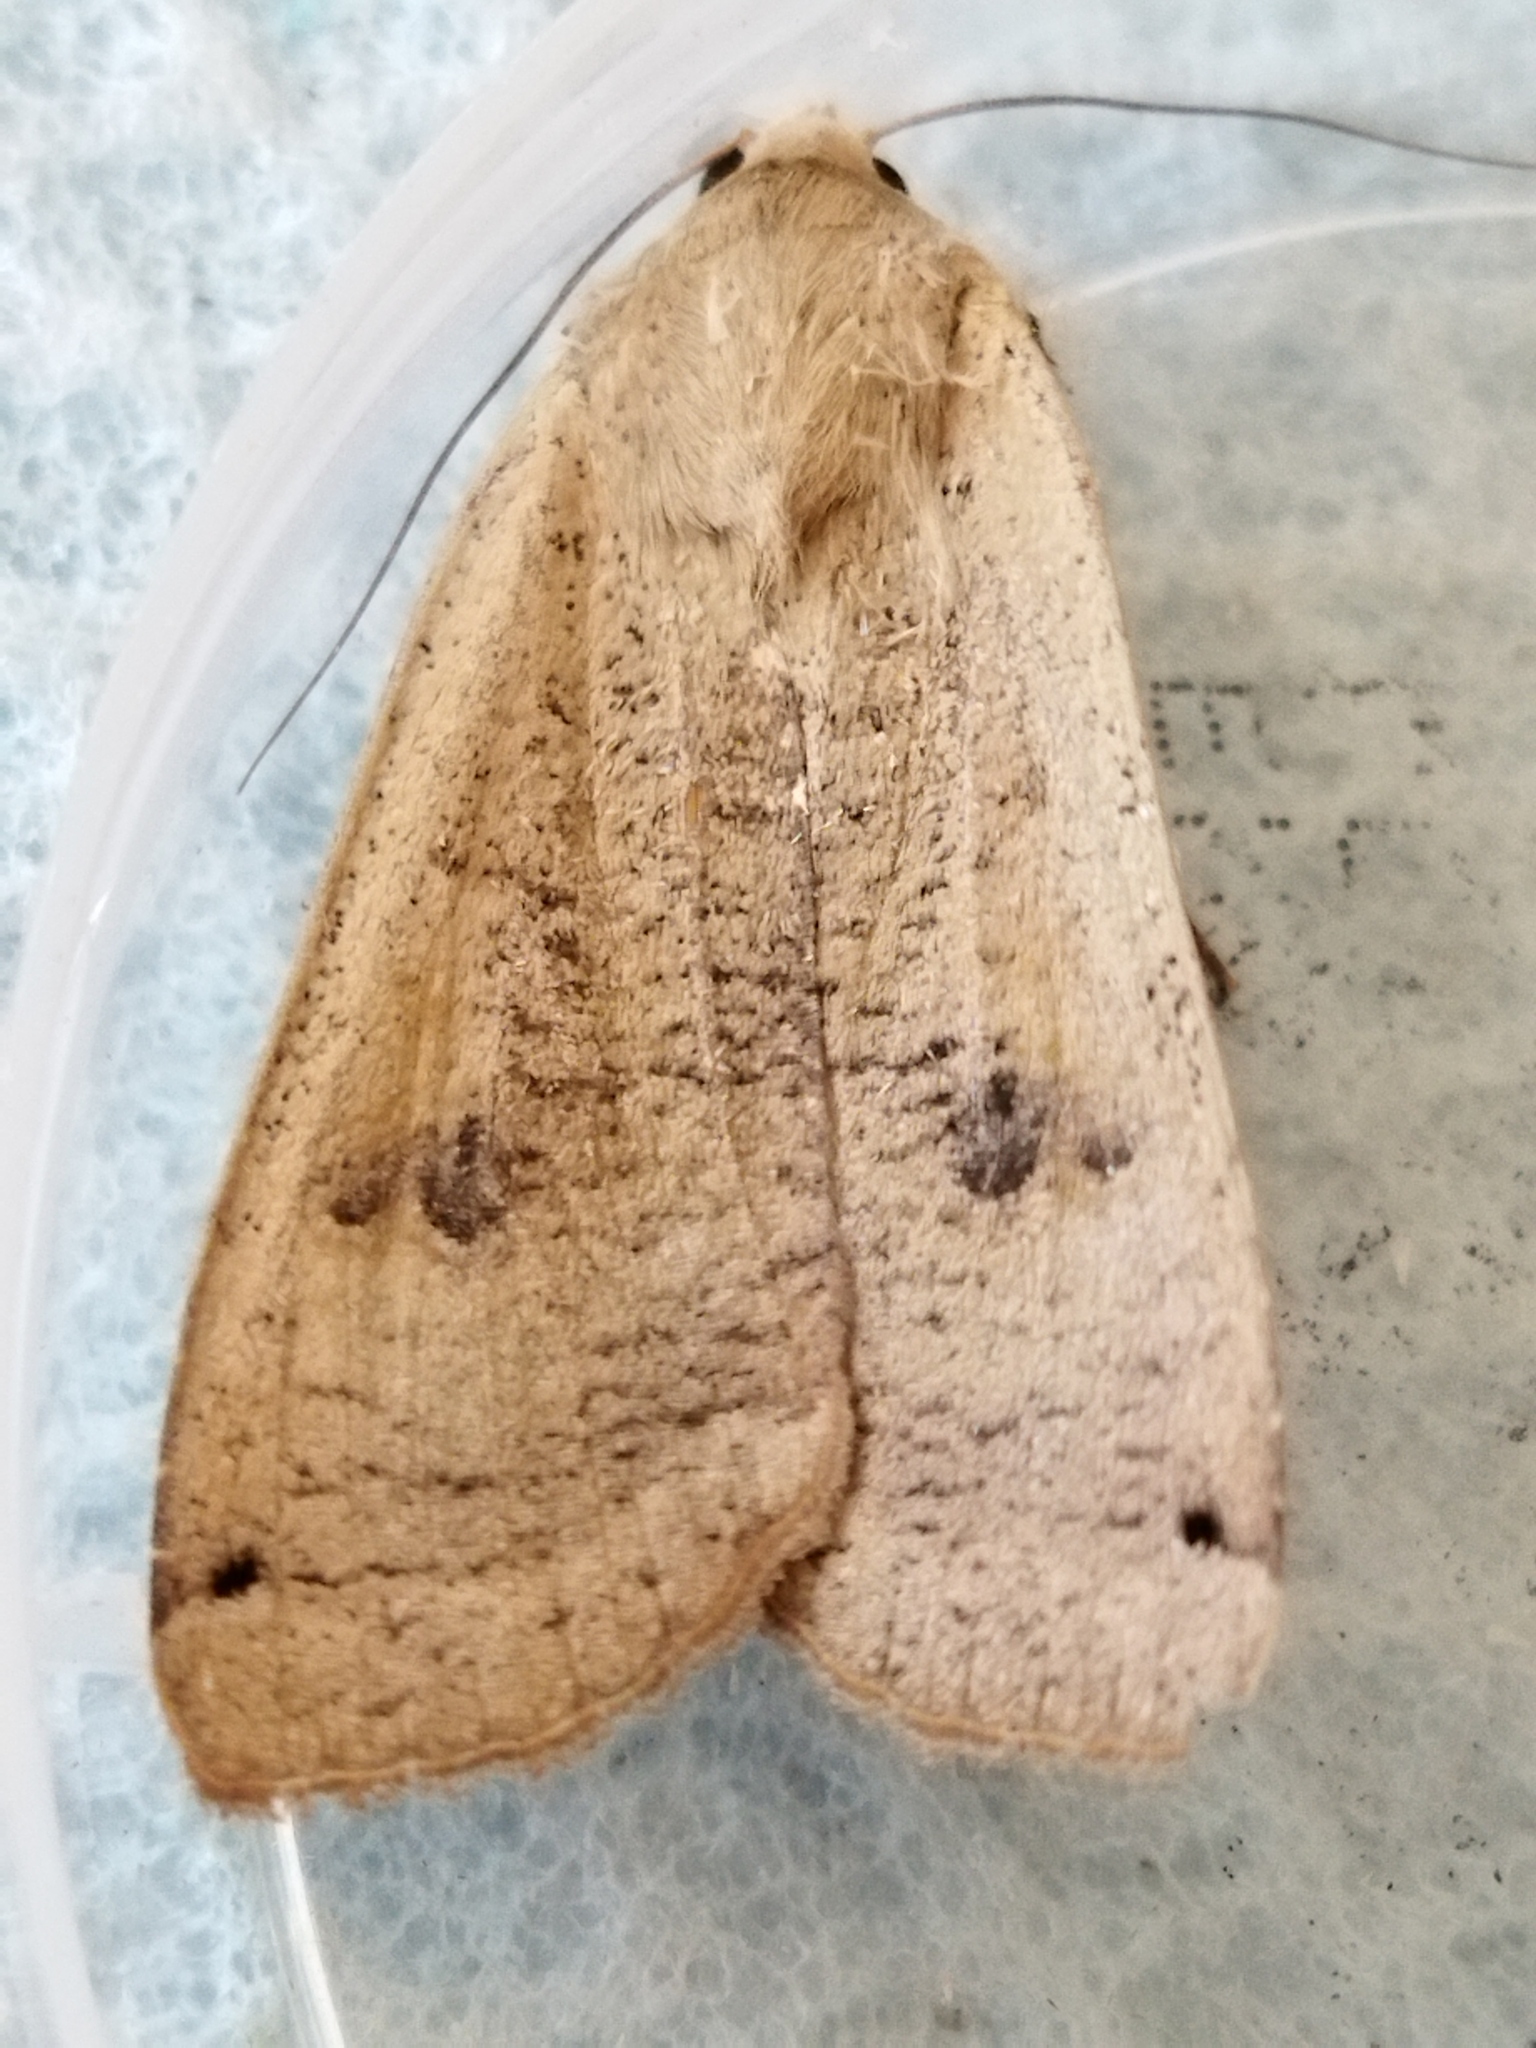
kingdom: Animalia
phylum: Arthropoda
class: Insecta
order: Lepidoptera
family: Noctuidae
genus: Noctua
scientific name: Noctua pronuba
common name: Large yellow underwing
